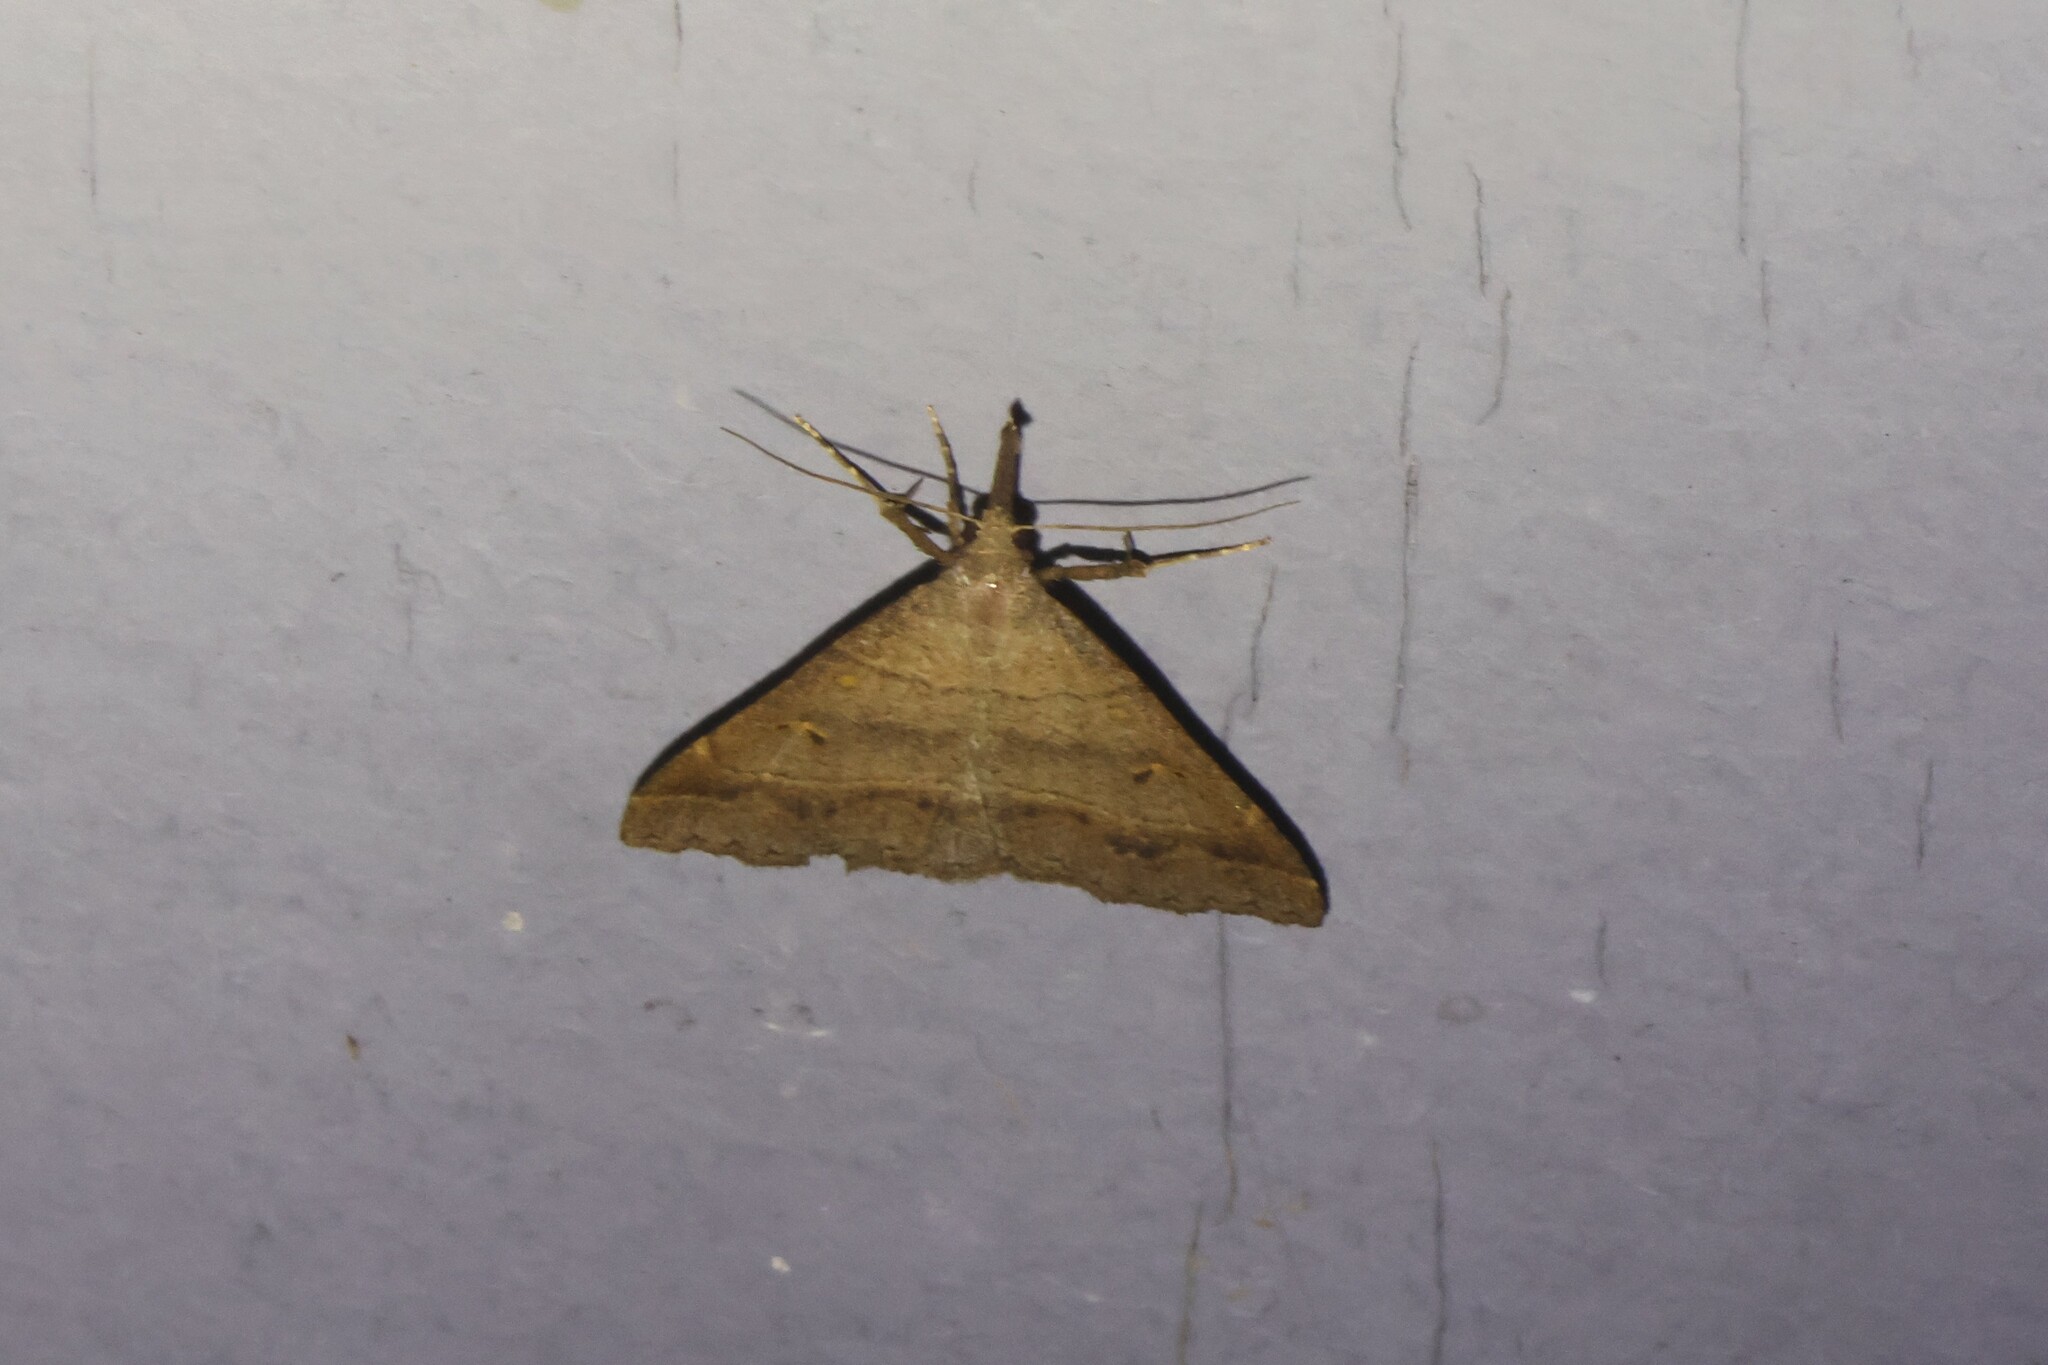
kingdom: Animalia
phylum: Arthropoda
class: Insecta
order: Lepidoptera
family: Erebidae
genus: Renia
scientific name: Renia flavipunctalis
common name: Yellow-spotted renia moth
